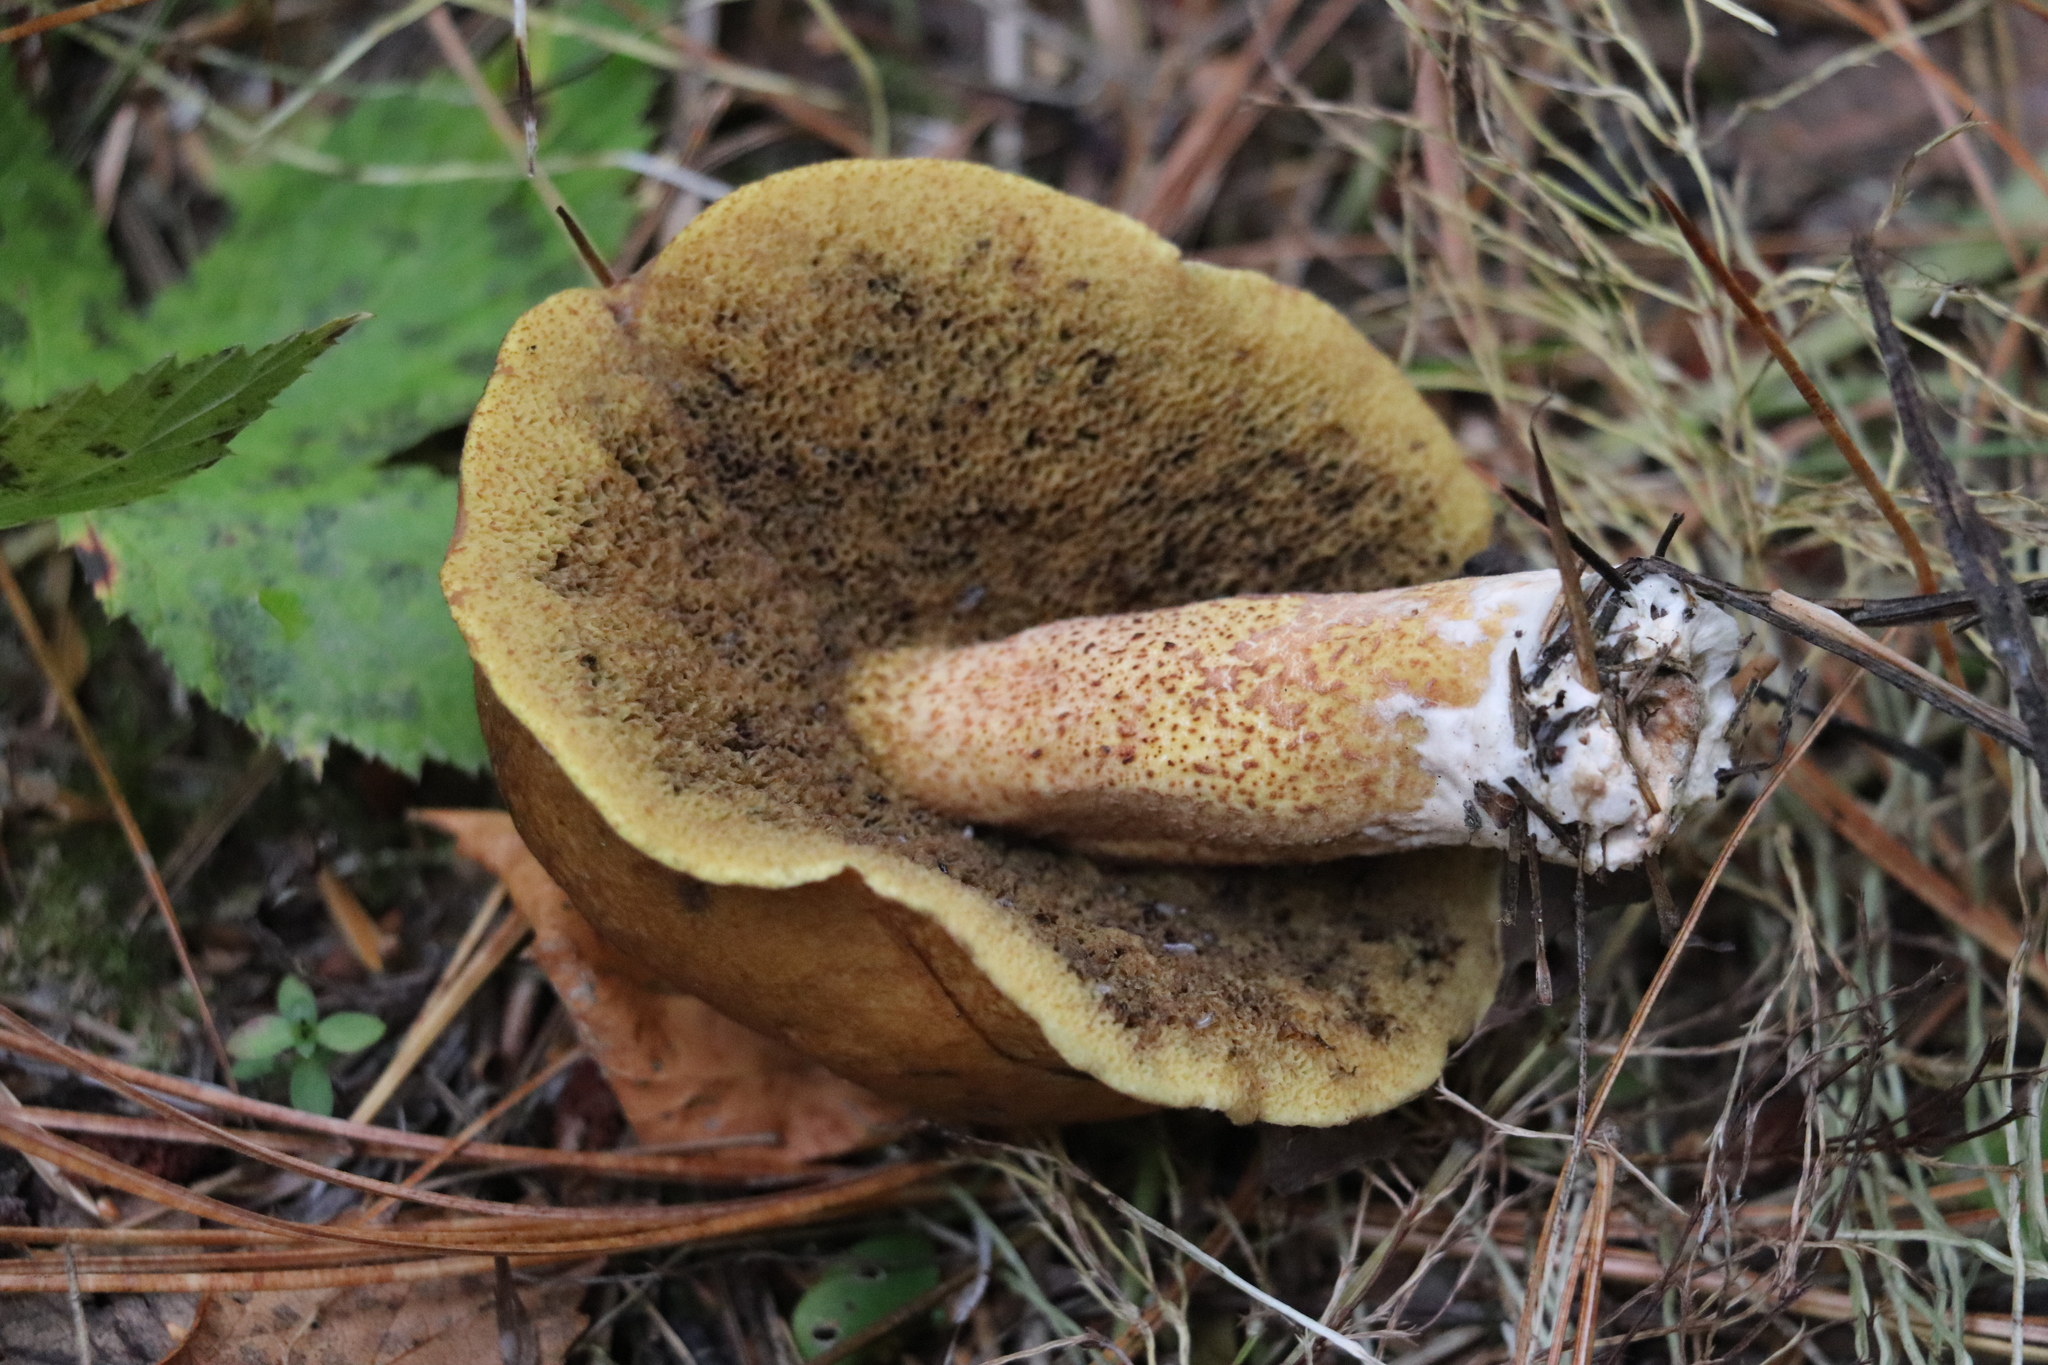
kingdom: Fungi
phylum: Basidiomycota
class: Agaricomycetes
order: Boletales
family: Suillaceae
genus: Suillus
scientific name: Suillus punctipes
